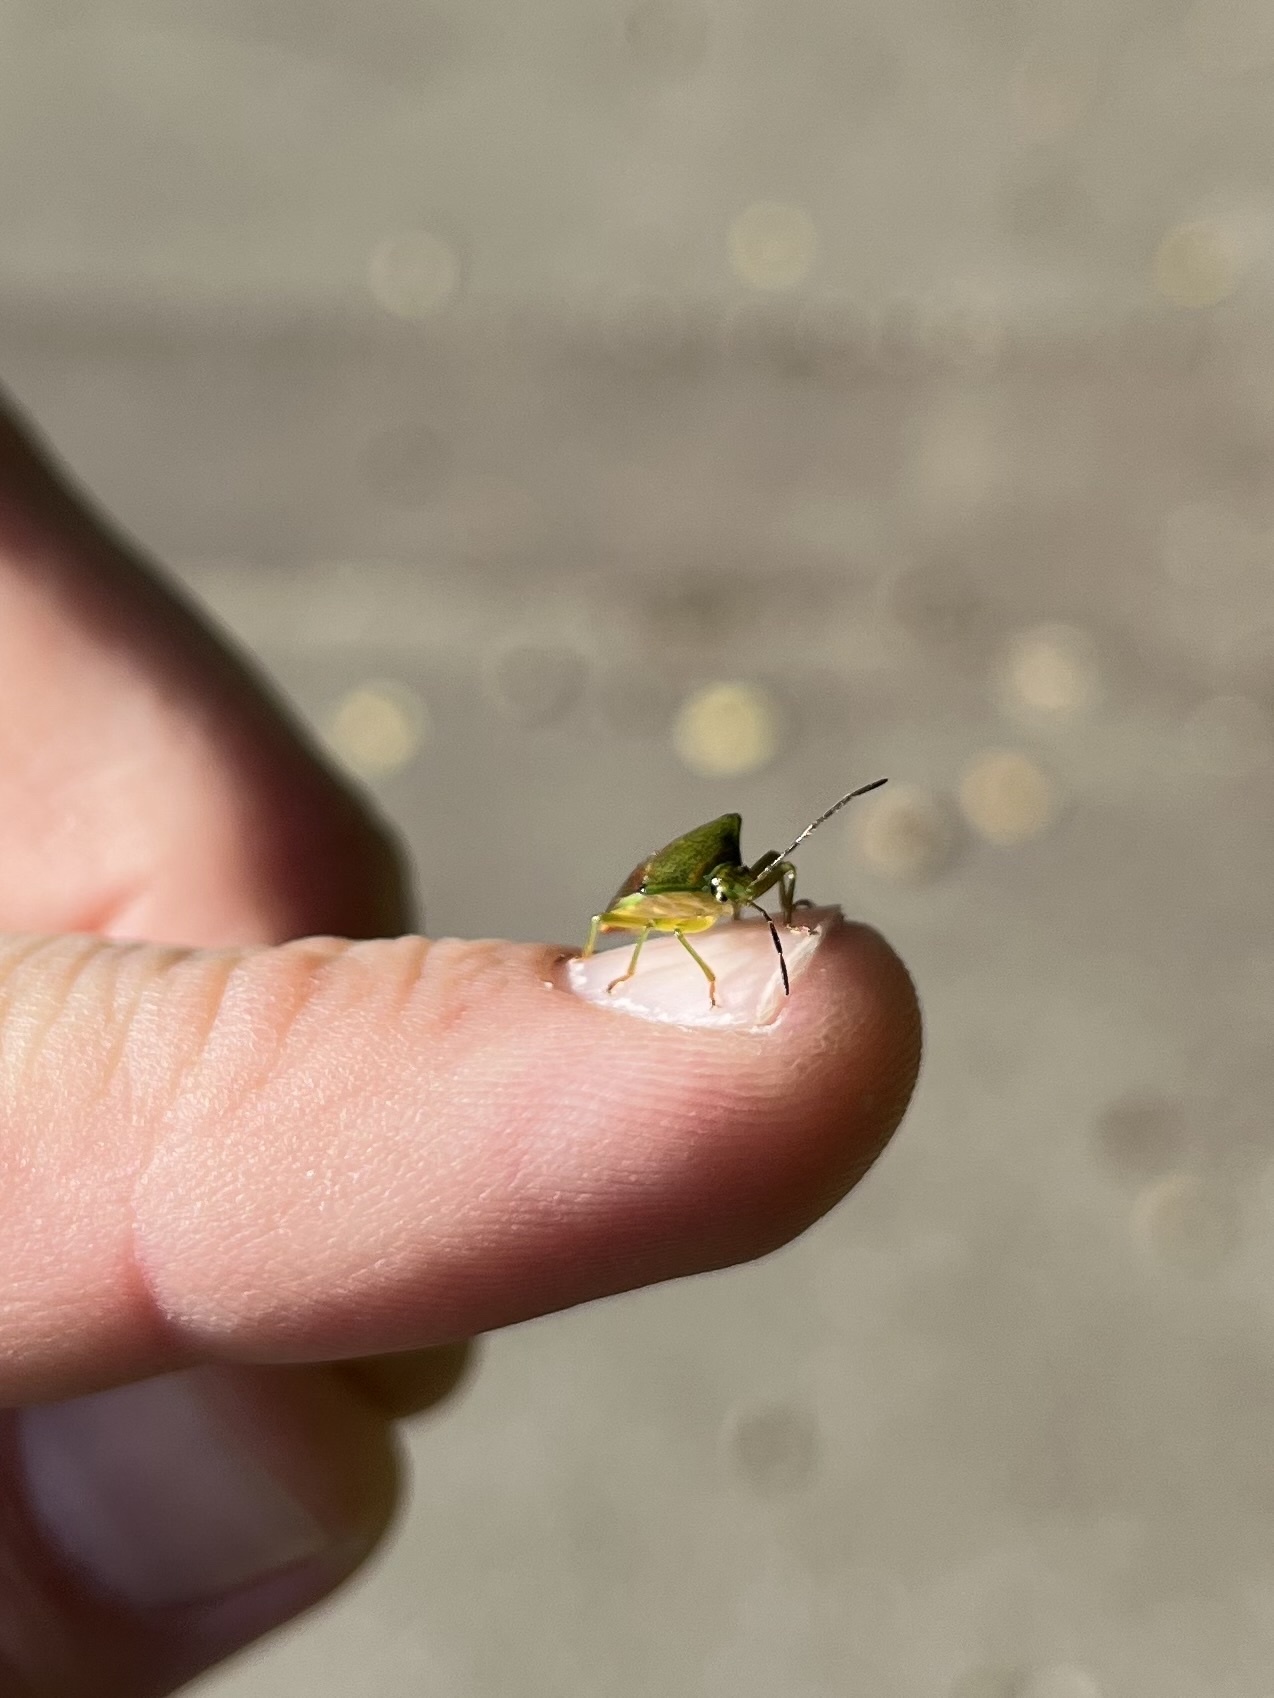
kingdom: Animalia
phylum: Arthropoda
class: Insecta
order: Hemiptera
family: Acanthosomatidae
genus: Elasmostethus
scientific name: Elasmostethus
